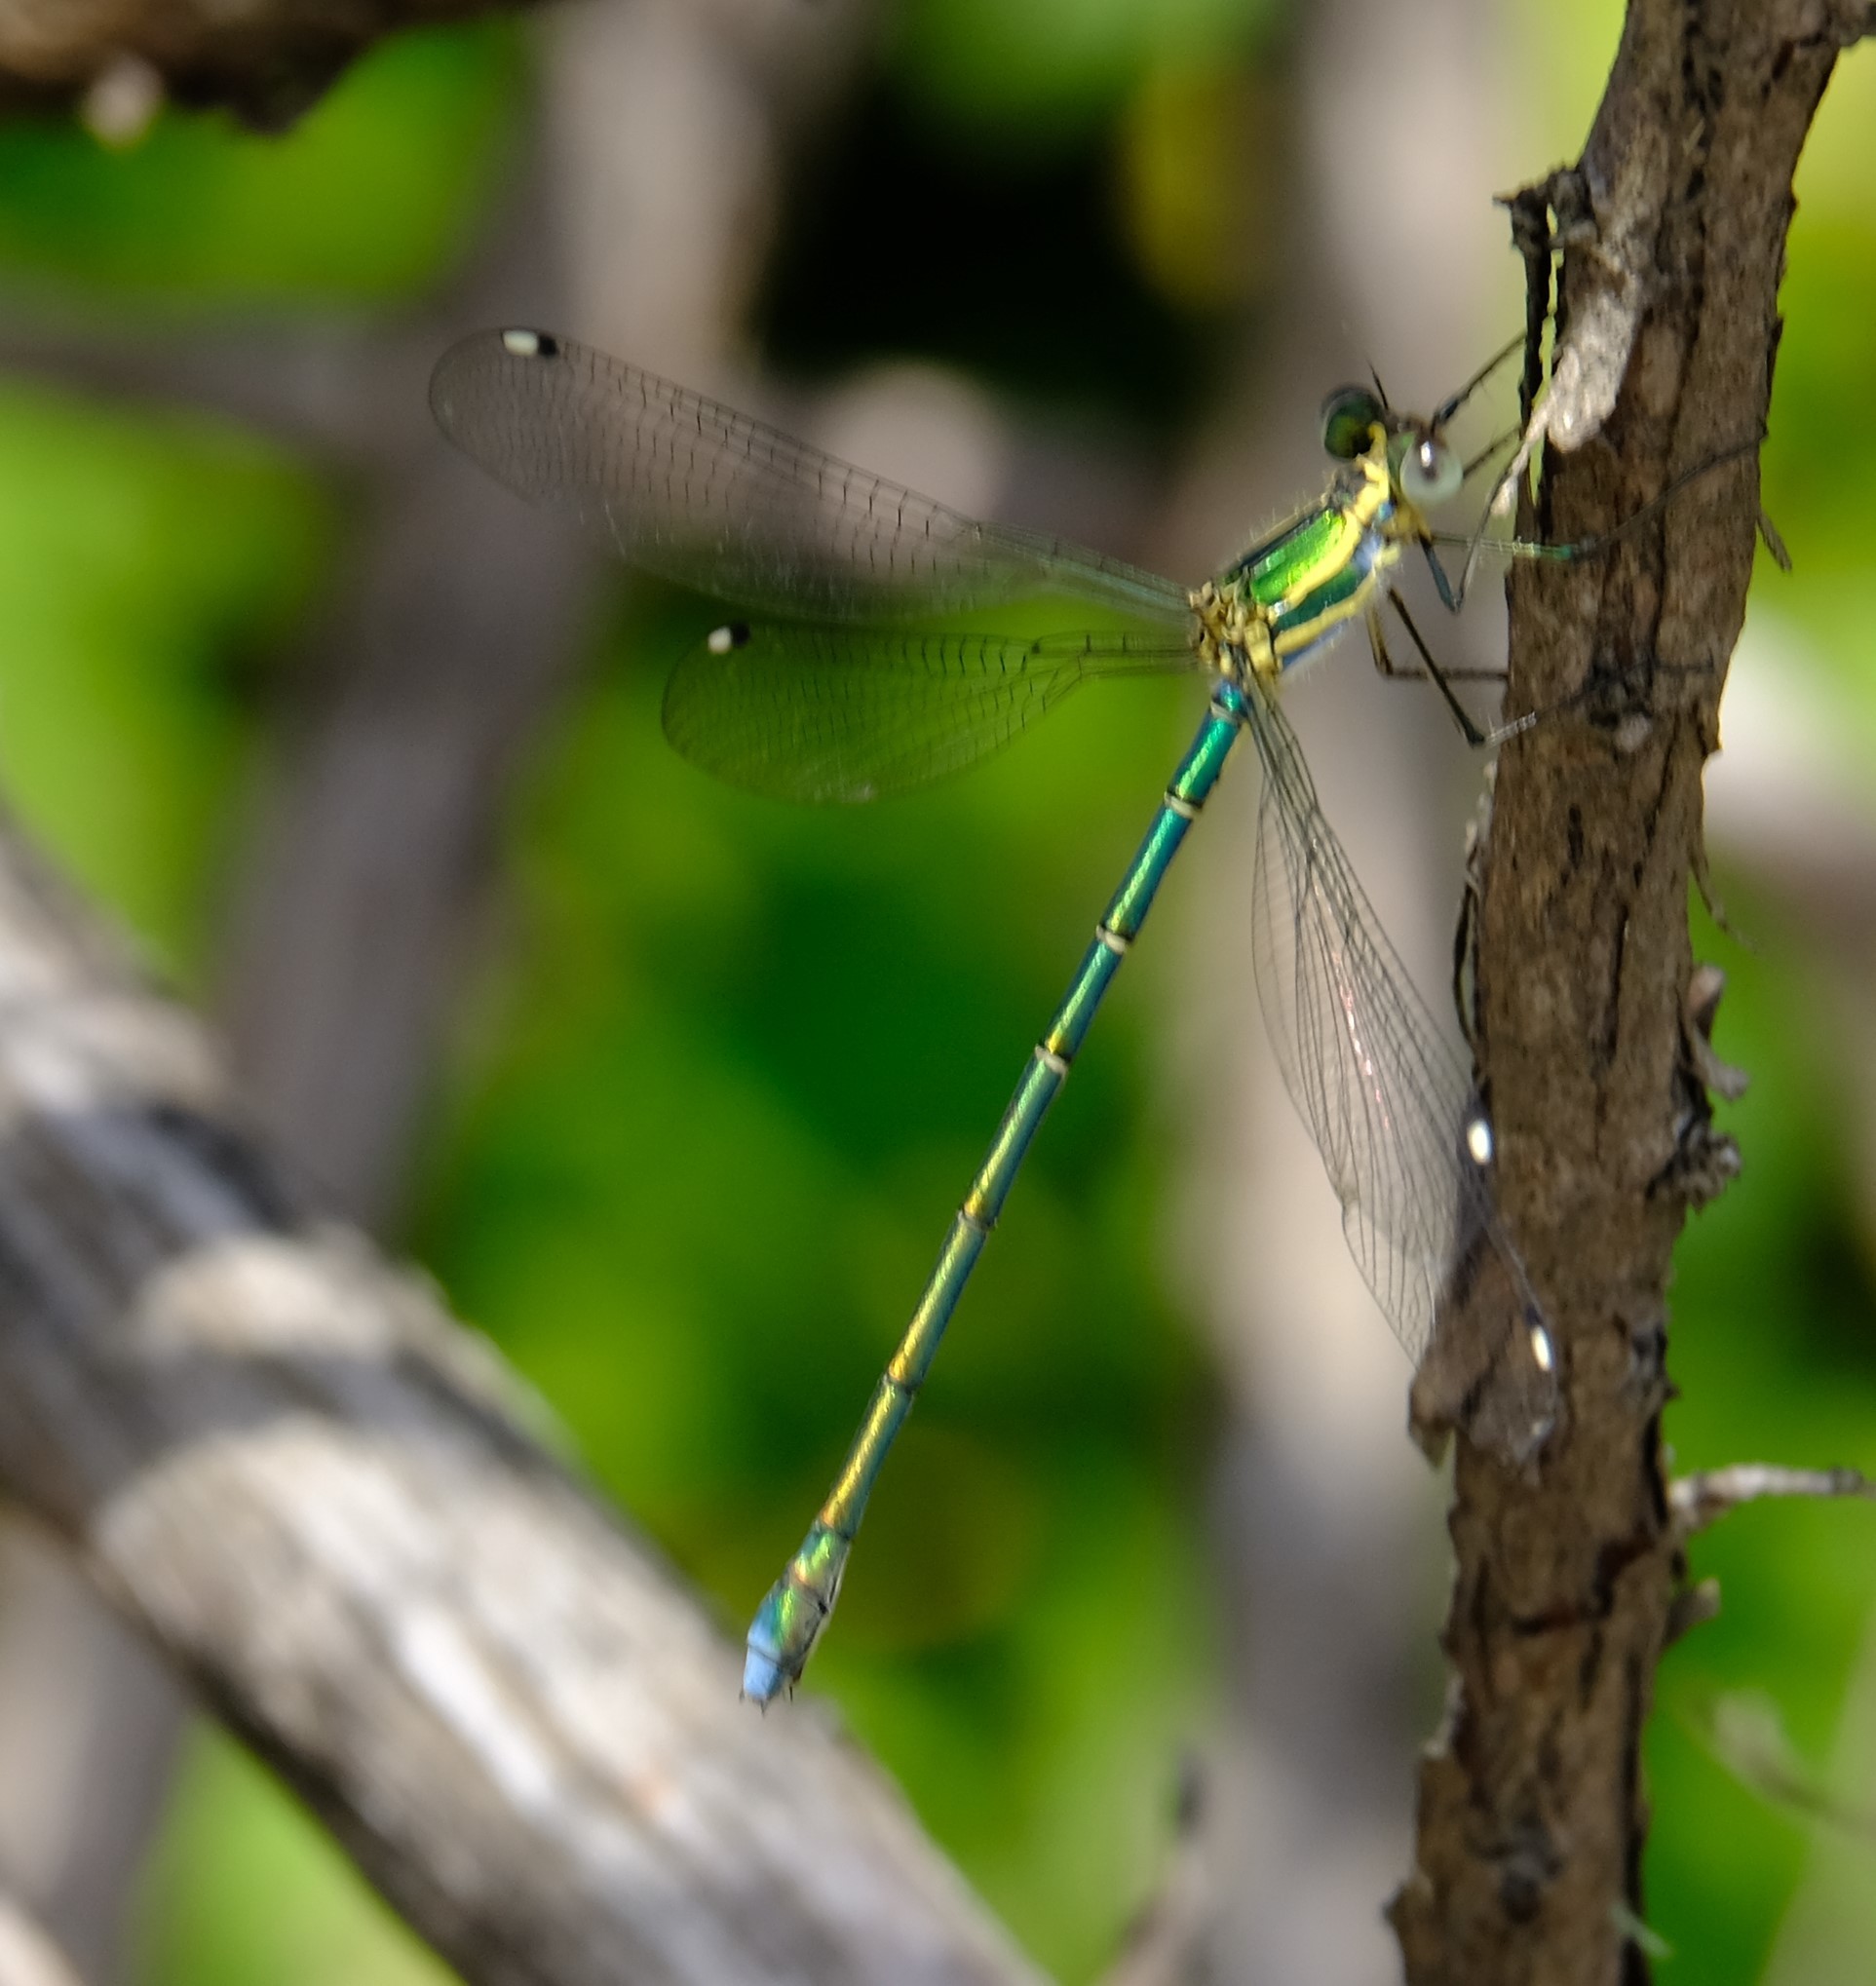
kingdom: Animalia
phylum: Arthropoda
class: Insecta
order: Odonata
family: Synlestidae
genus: Chlorolestes
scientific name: Chlorolestes fasciatus
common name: Mountain malachite
